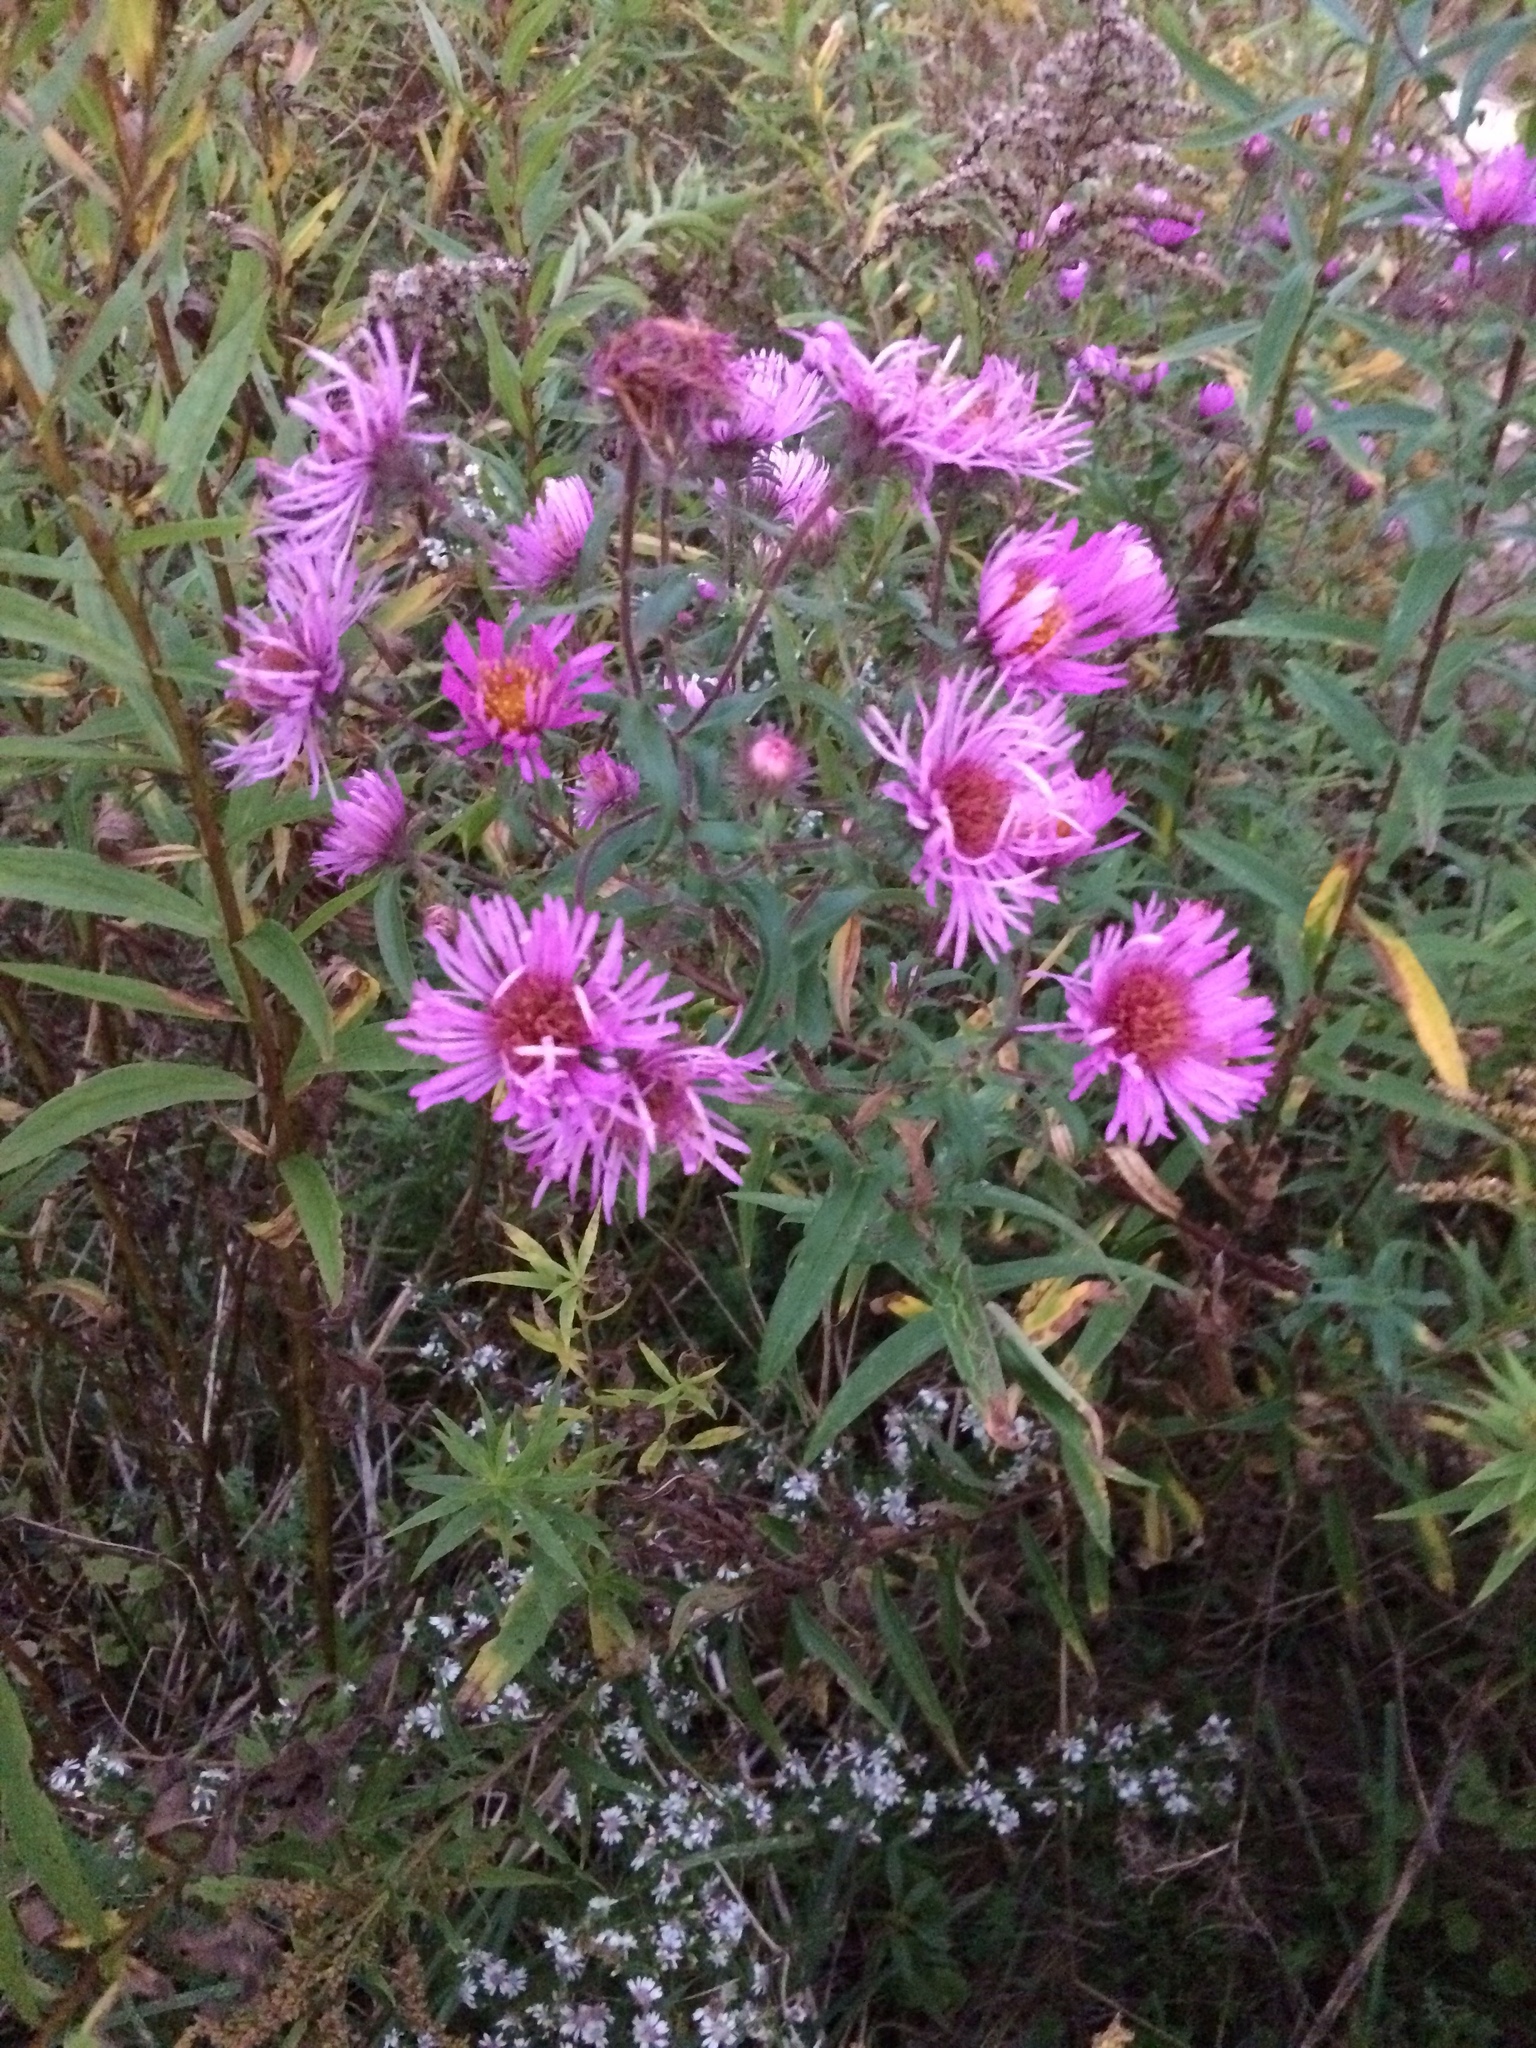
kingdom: Plantae
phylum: Tracheophyta
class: Magnoliopsida
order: Asterales
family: Asteraceae
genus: Symphyotrichum
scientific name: Symphyotrichum novae-angliae
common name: Michaelmas daisy
